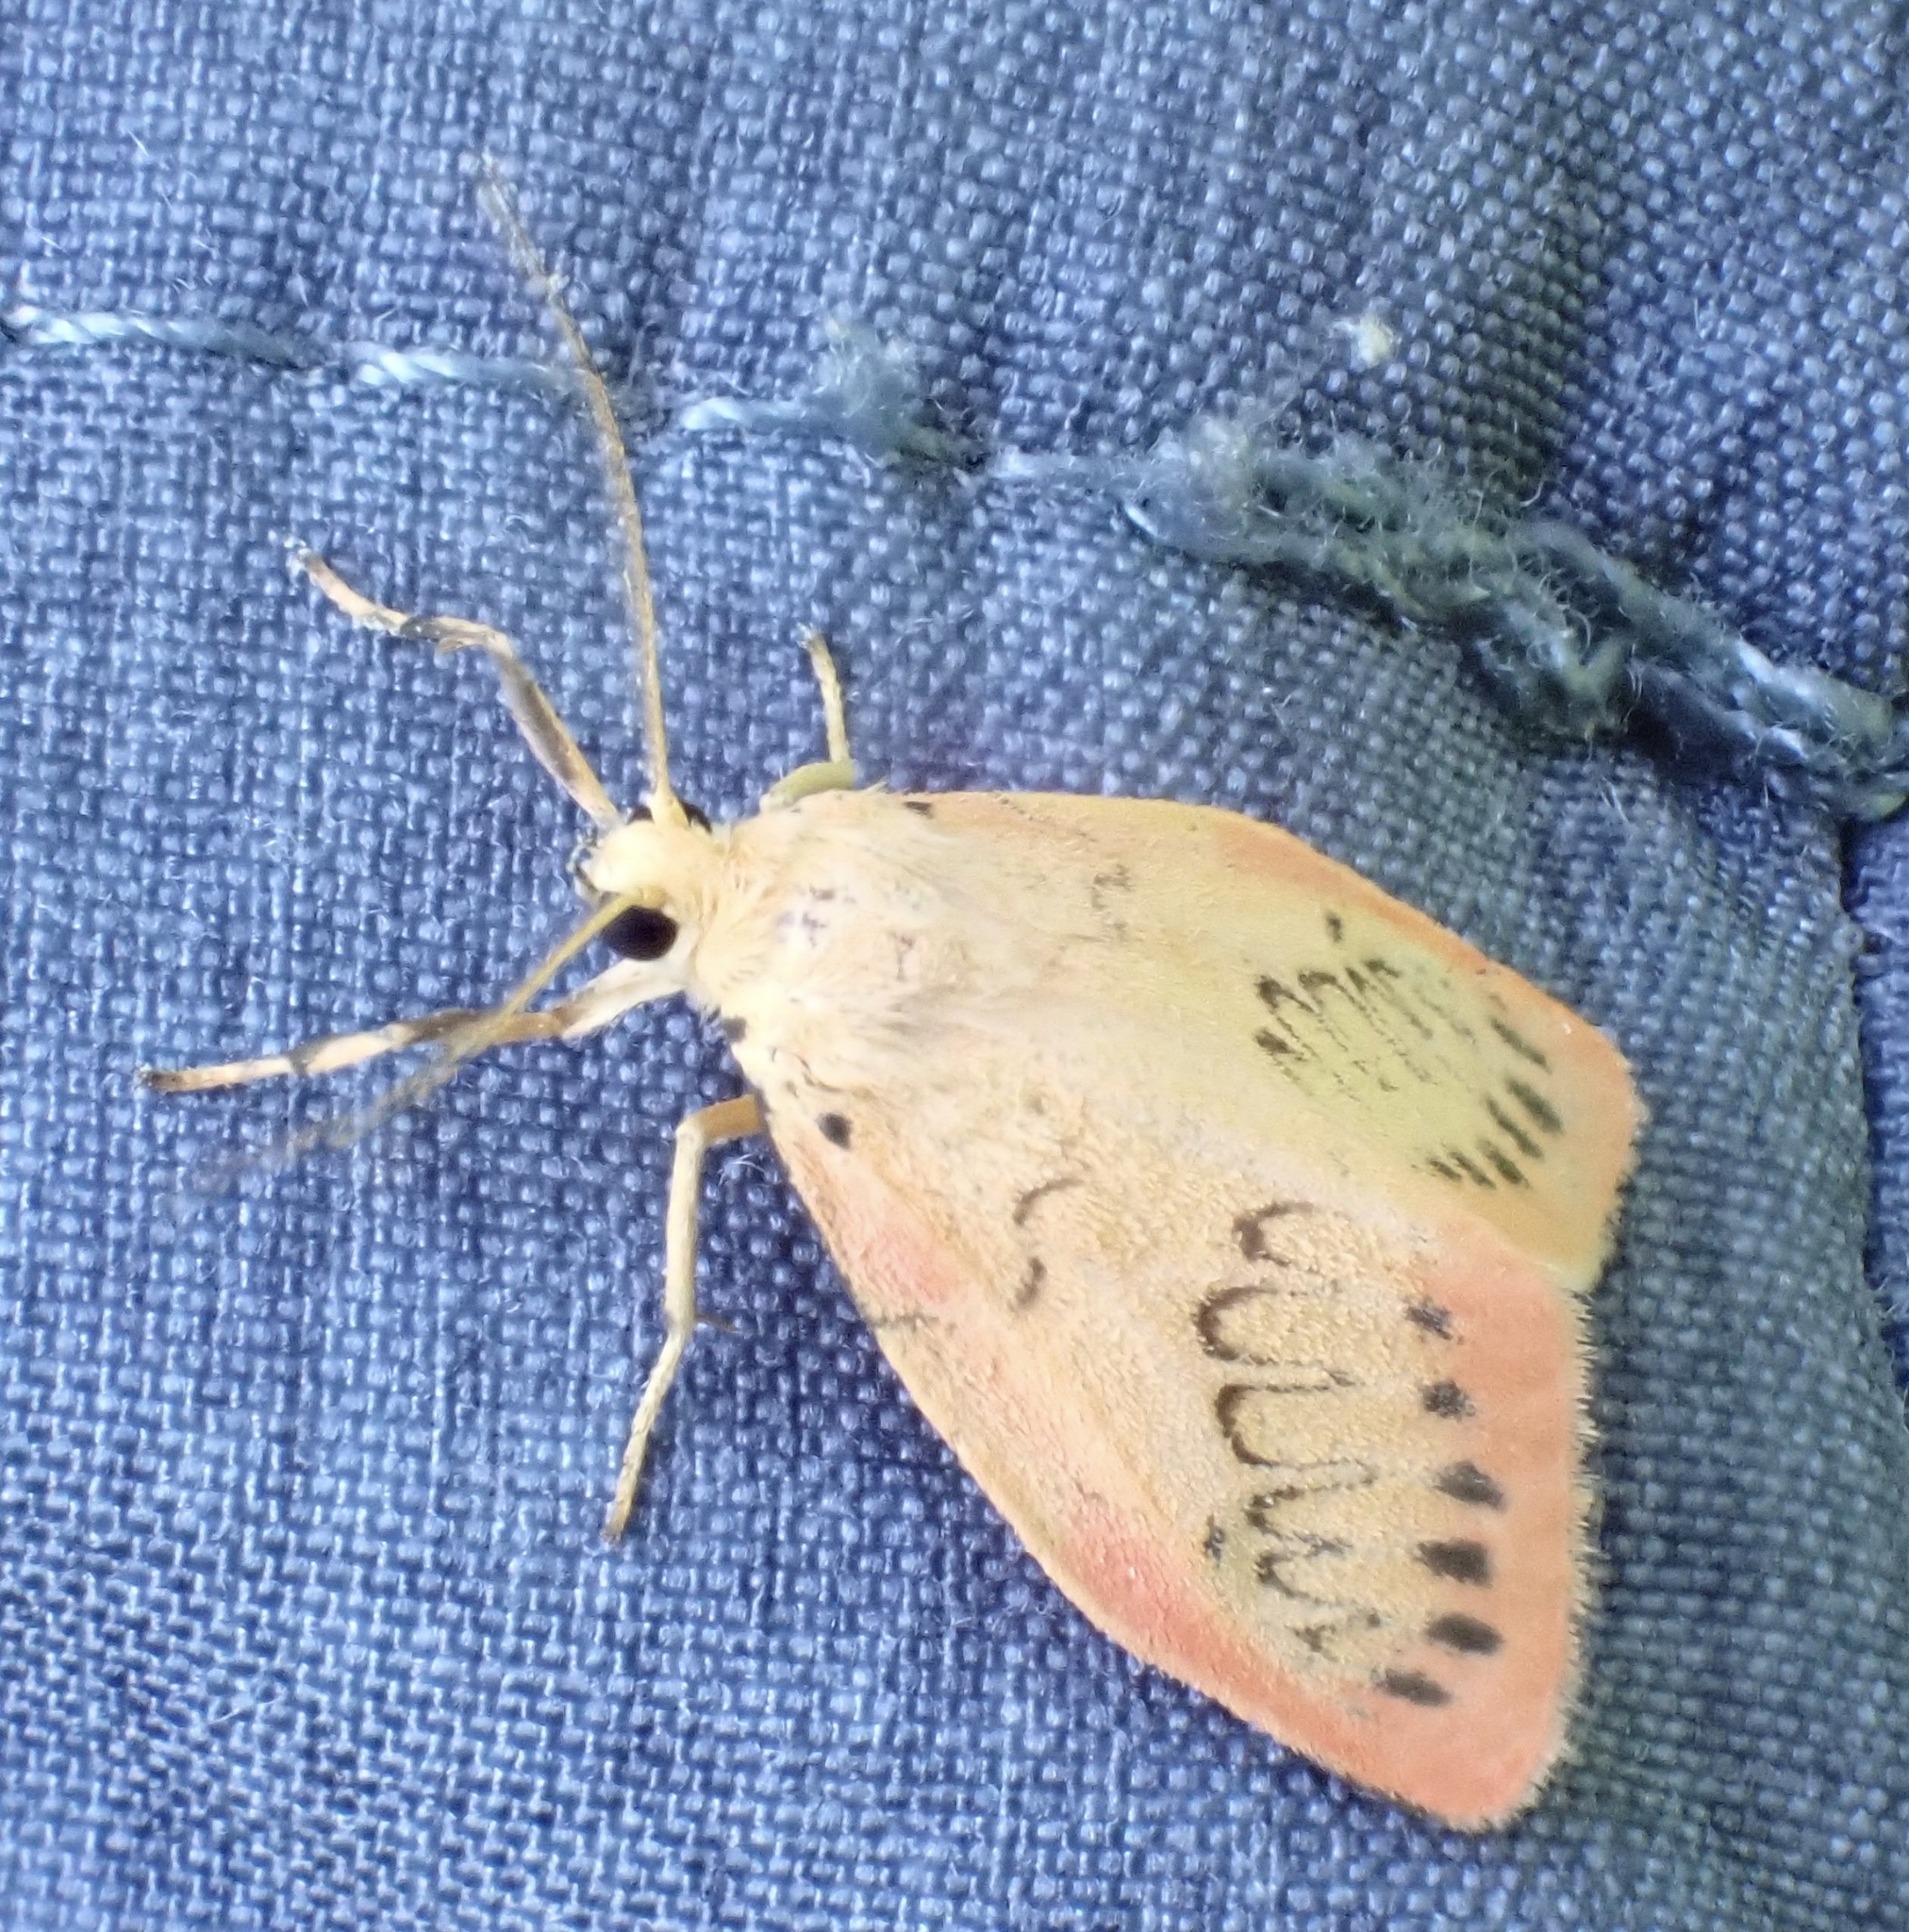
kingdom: Animalia
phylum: Arthropoda
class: Insecta
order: Lepidoptera
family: Erebidae
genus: Miltochrista
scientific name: Miltochrista miniata
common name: Rosy footman
